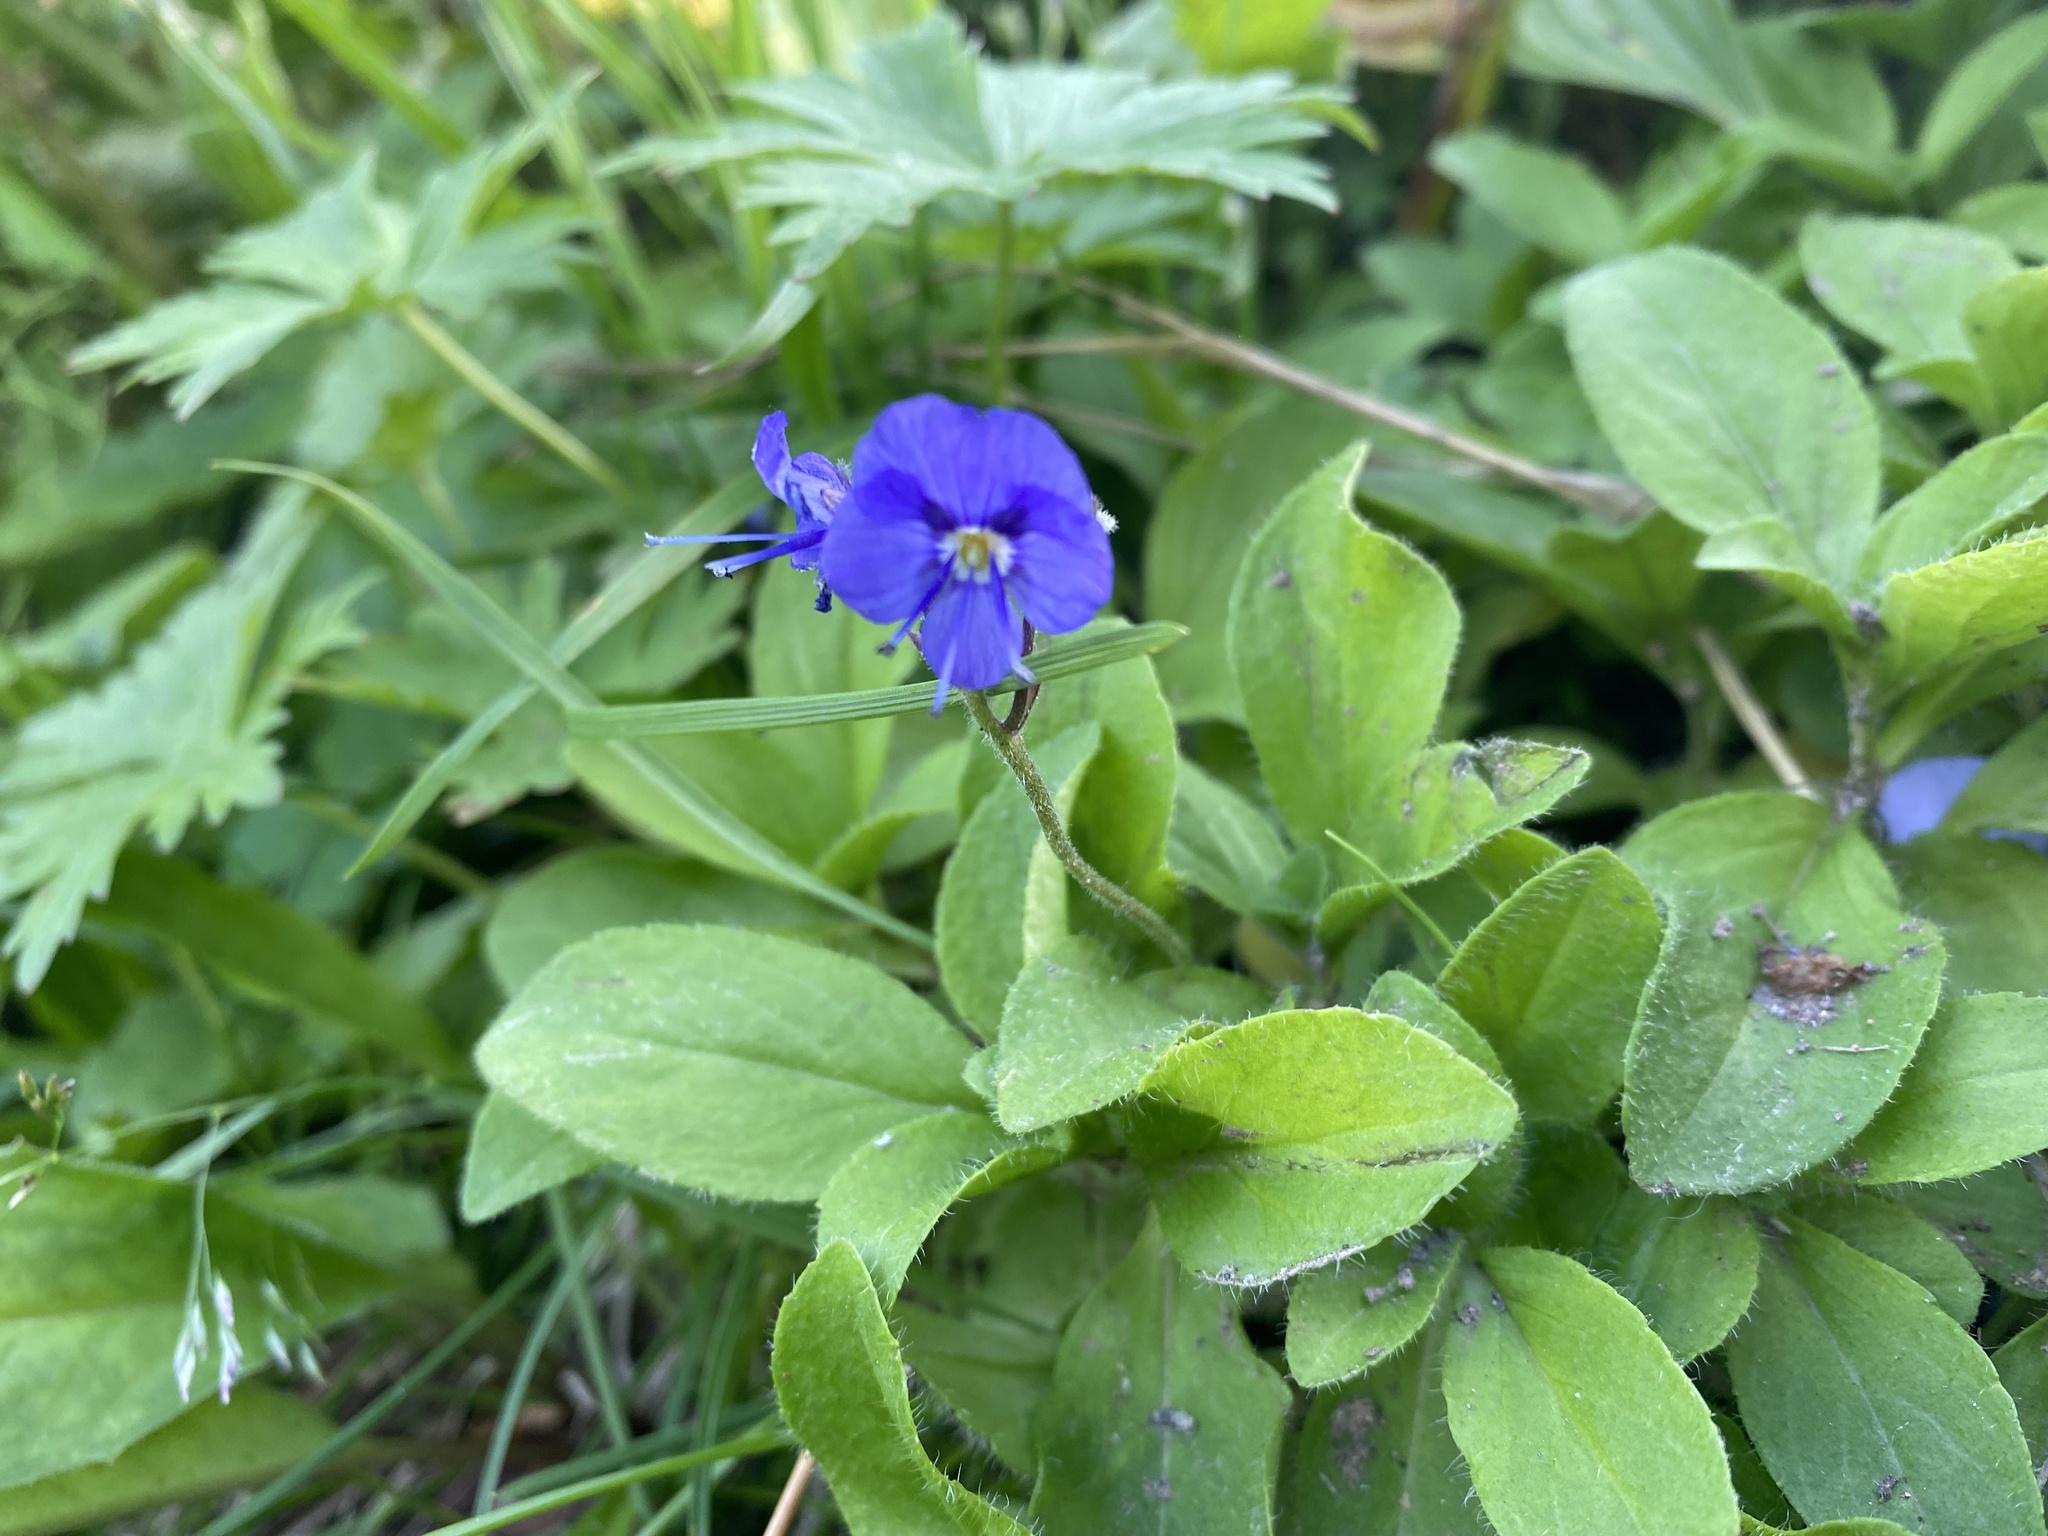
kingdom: Plantae
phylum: Tracheophyta
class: Magnoliopsida
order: Lamiales
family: Plantaginaceae
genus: Veronica
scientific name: Veronica grandiflora
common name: Large-flower speedwell
